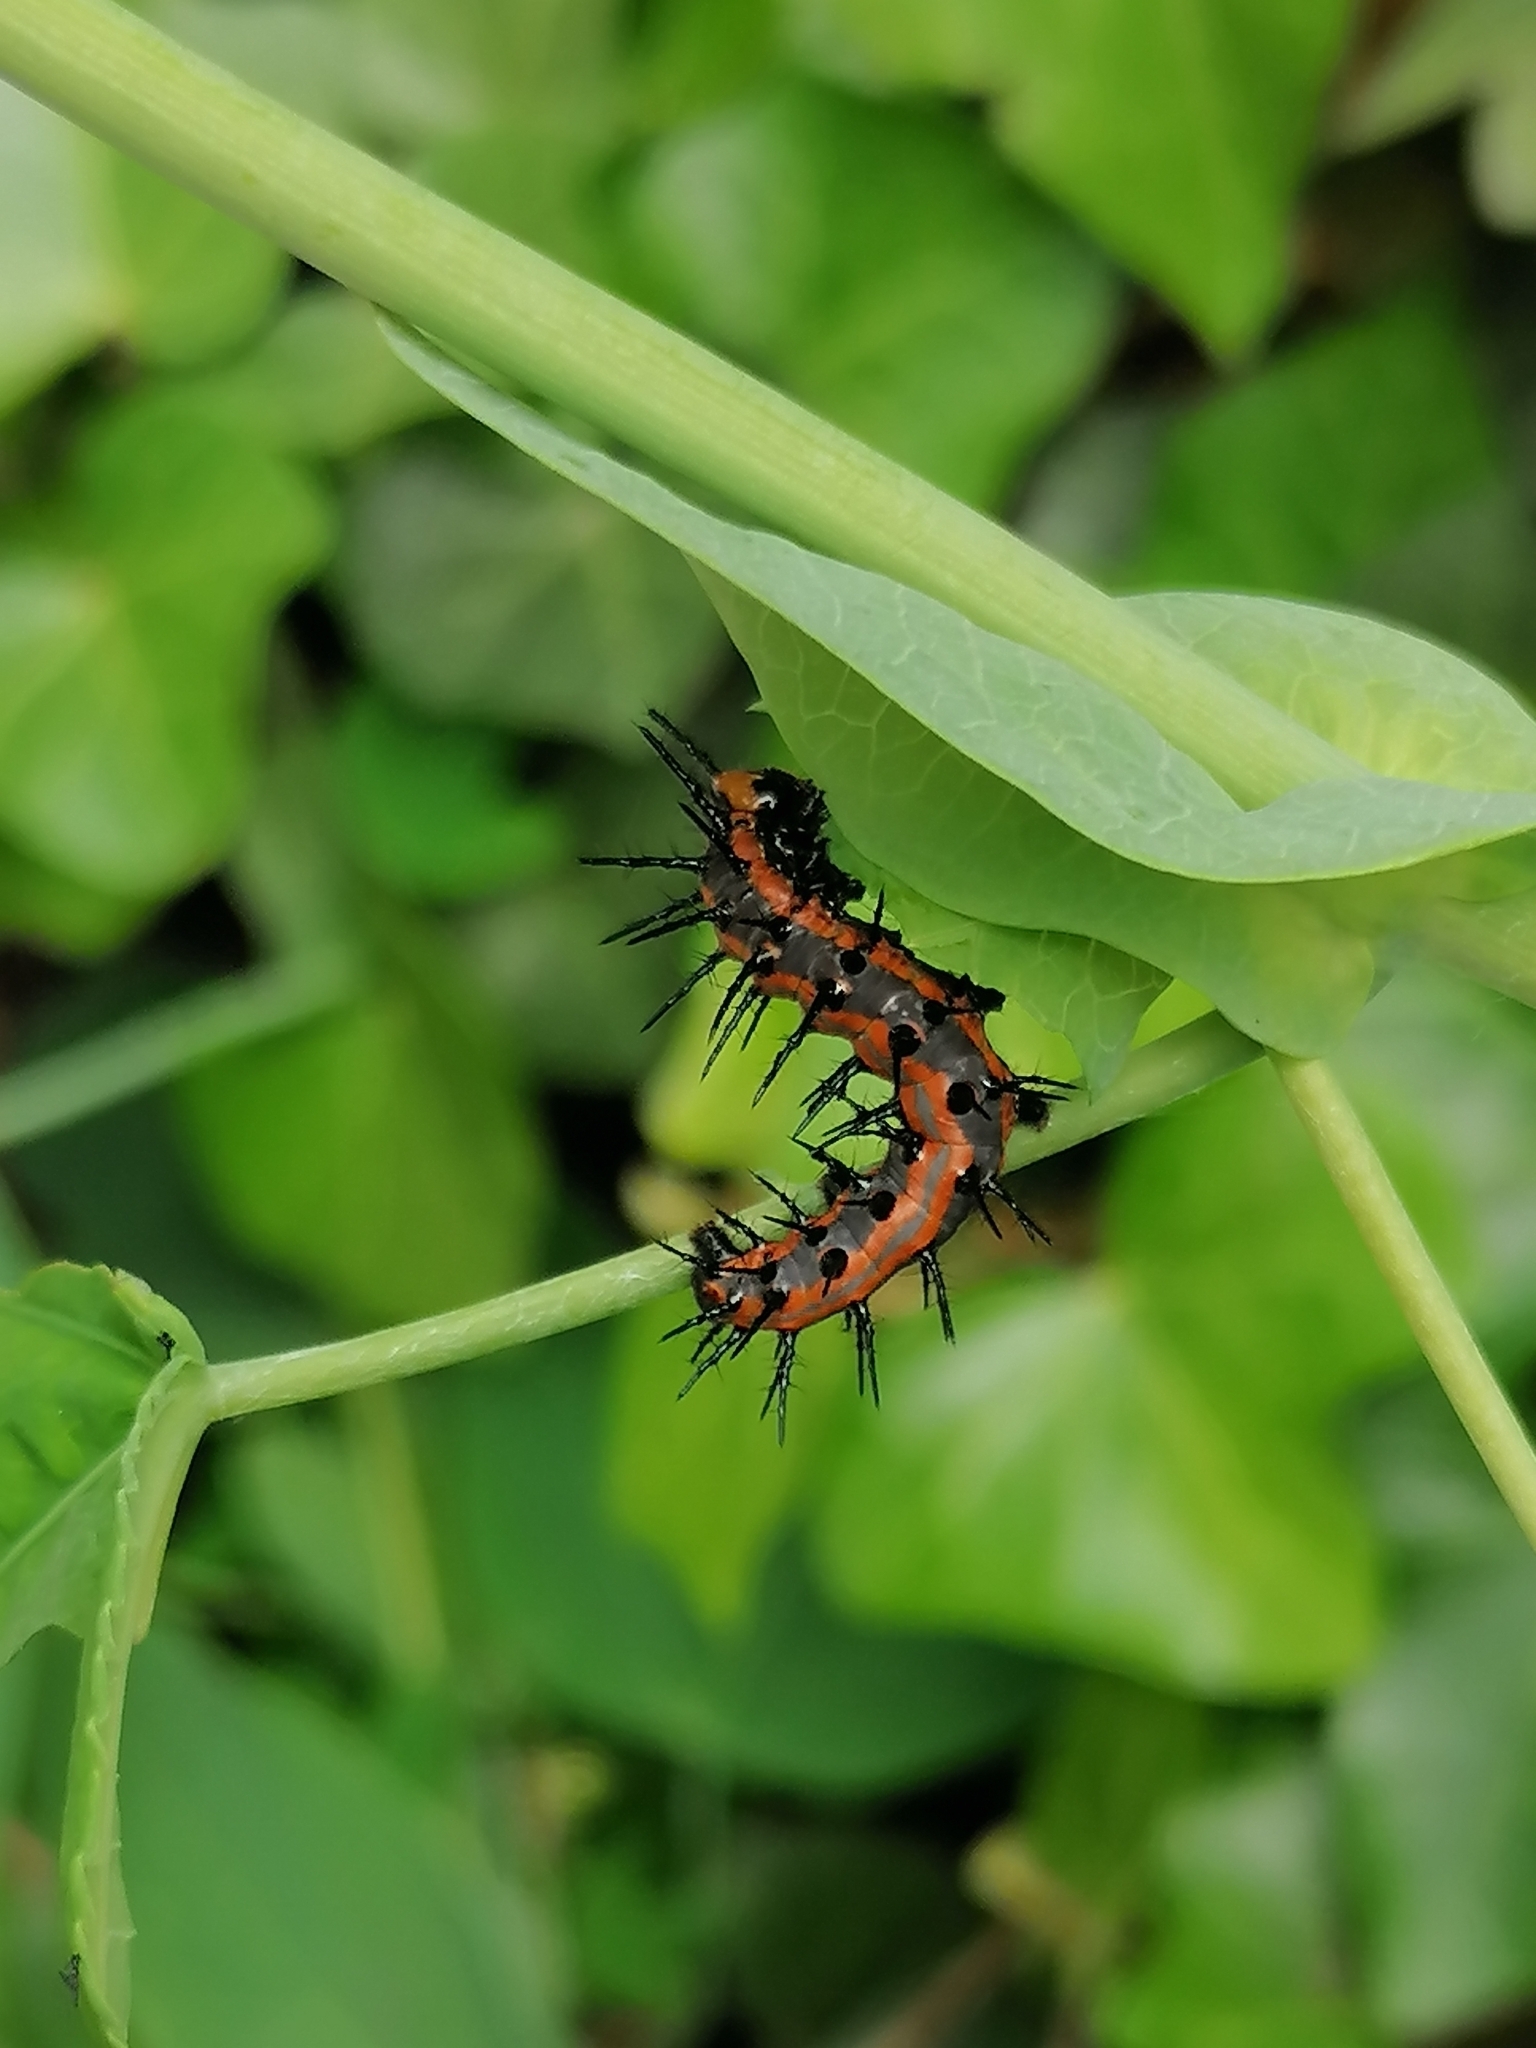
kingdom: Animalia
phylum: Arthropoda
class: Insecta
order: Lepidoptera
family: Nymphalidae
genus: Dione
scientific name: Dione vanillae
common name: Gulf fritillary
